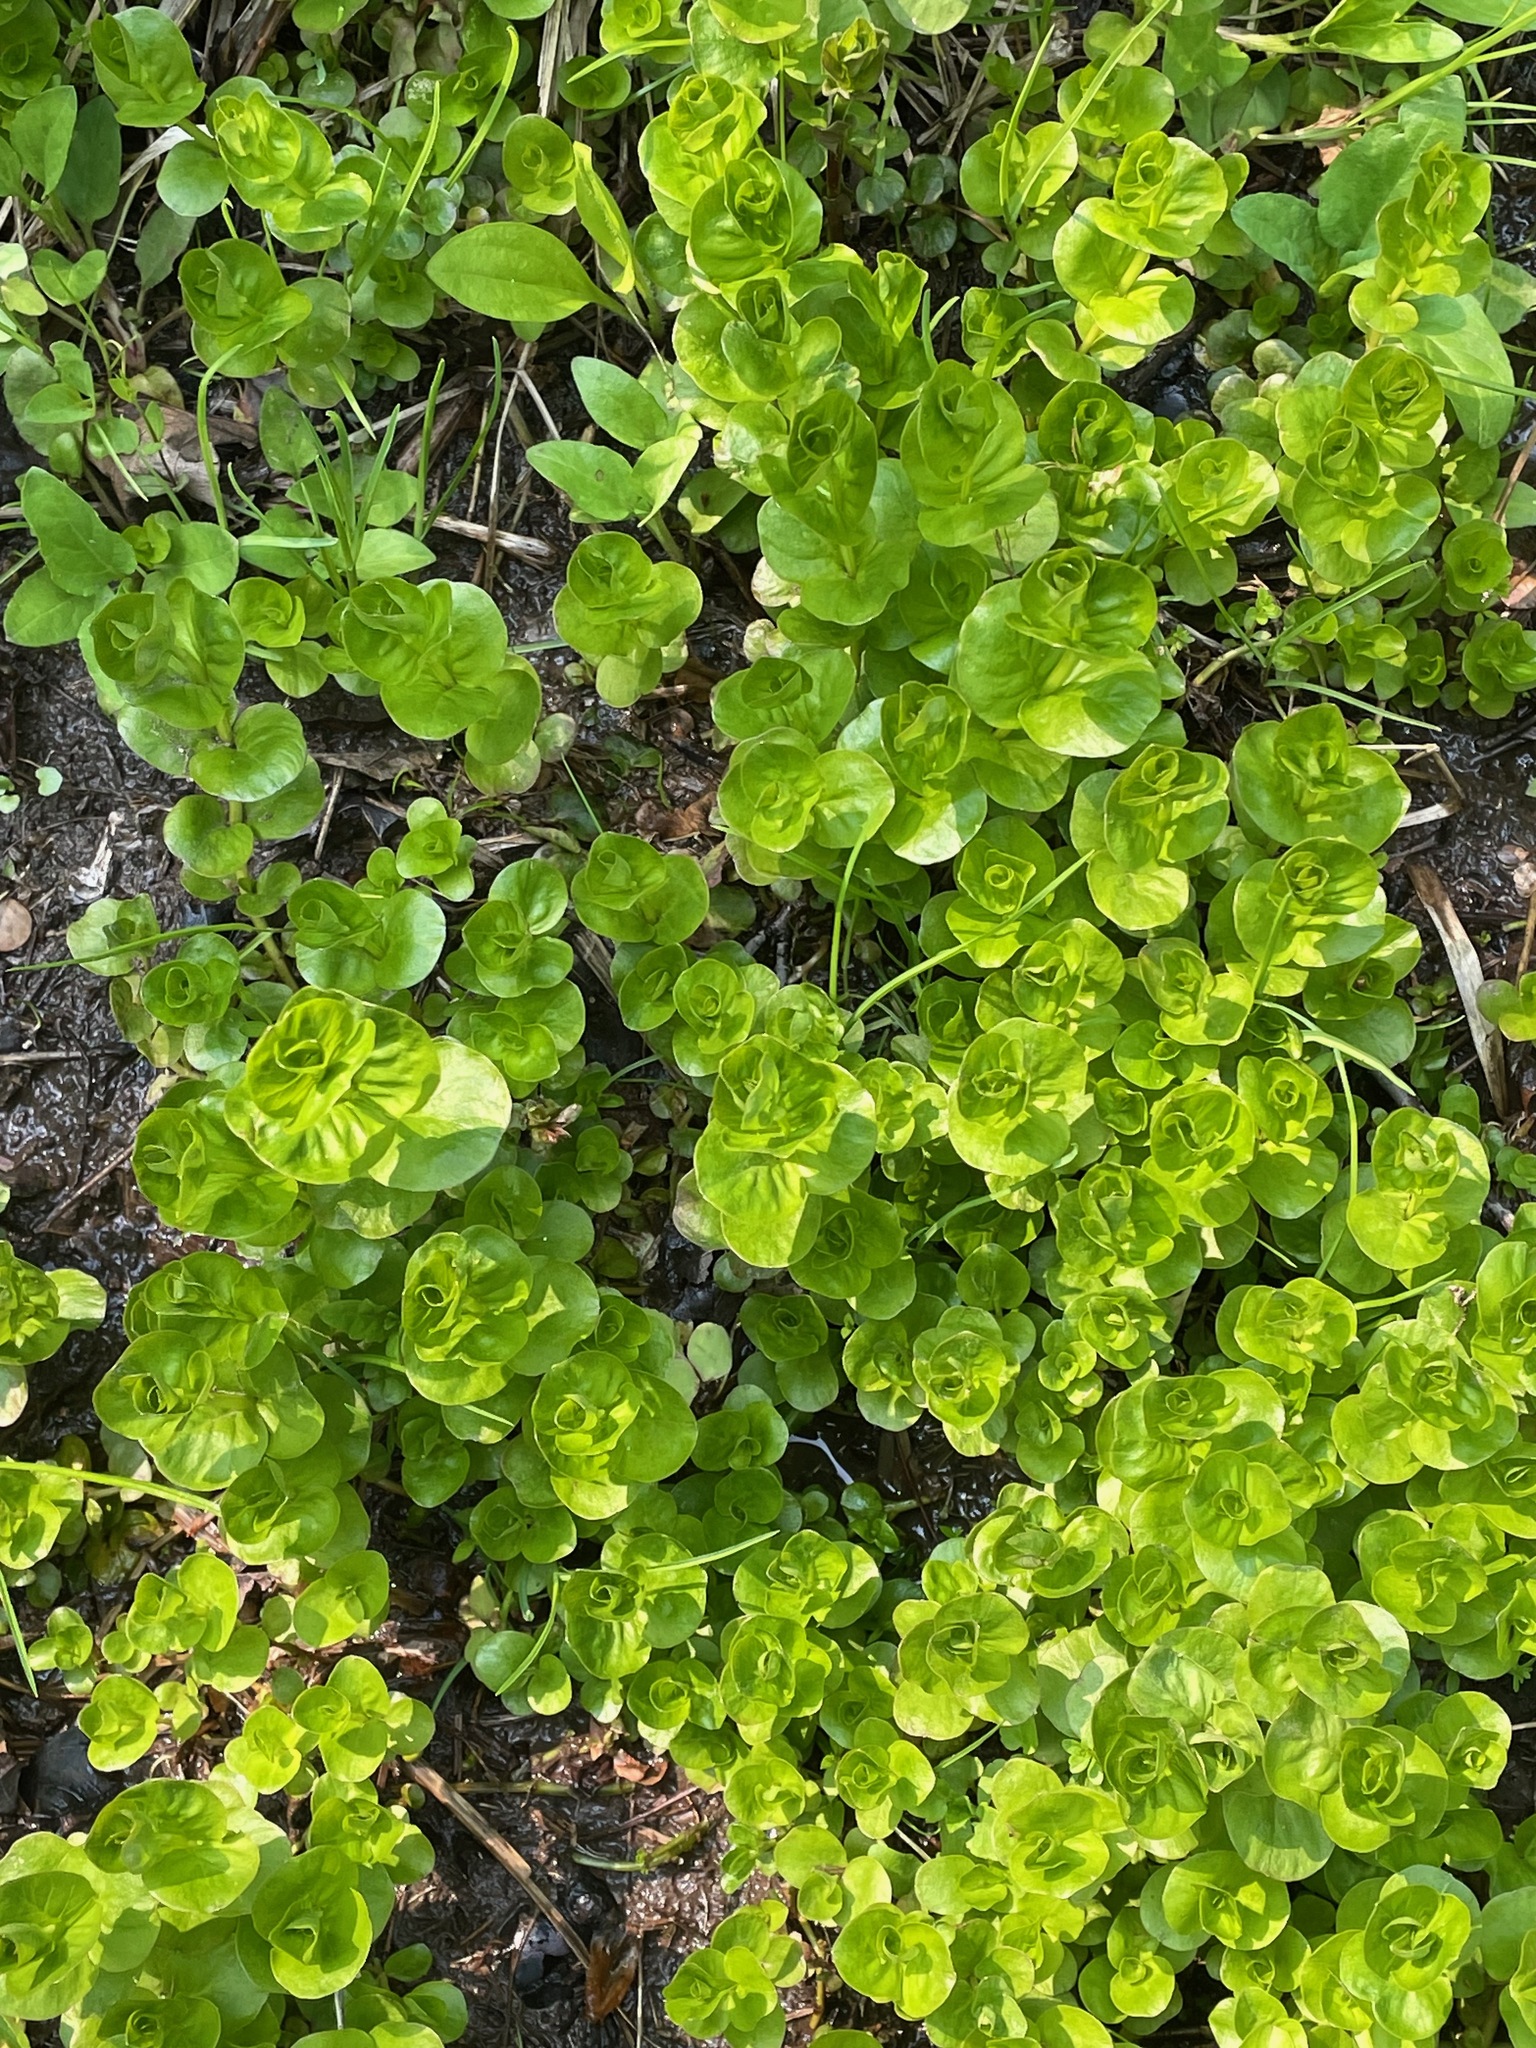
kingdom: Plantae
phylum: Tracheophyta
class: Magnoliopsida
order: Ericales
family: Primulaceae
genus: Lysimachia
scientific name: Lysimachia nummularia
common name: Moneywort
